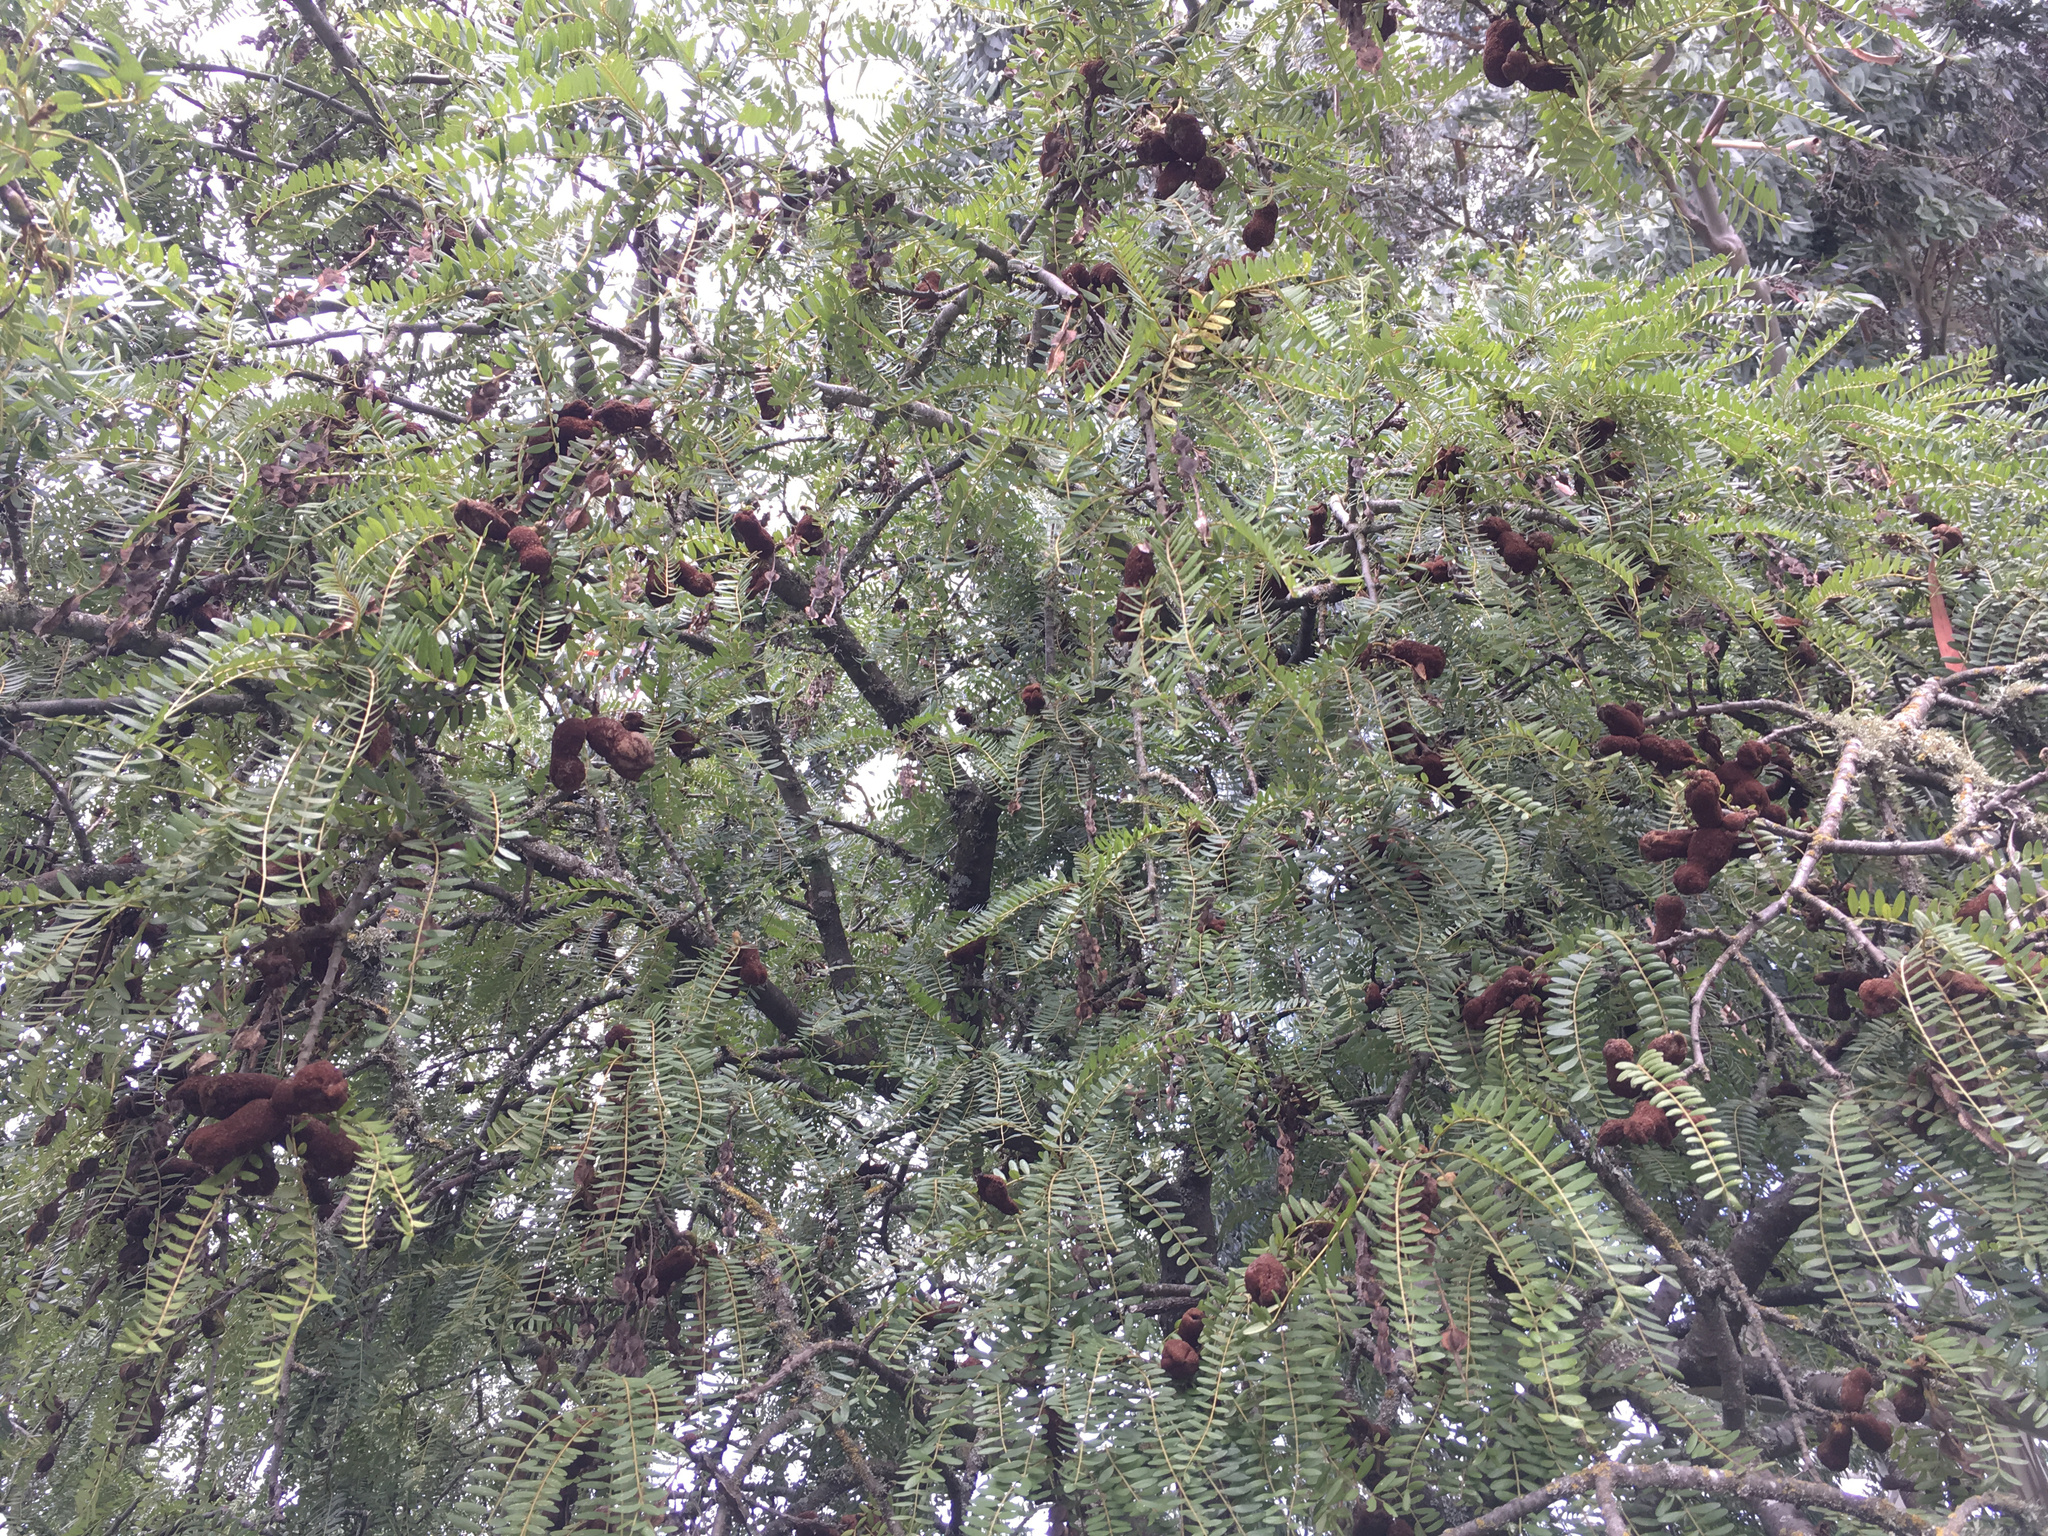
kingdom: Fungi
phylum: Basidiomycota
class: Pucciniomycetes
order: Pucciniales
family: Pucciniaceae
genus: Uromyces
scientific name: Uromyces edwardsiae
